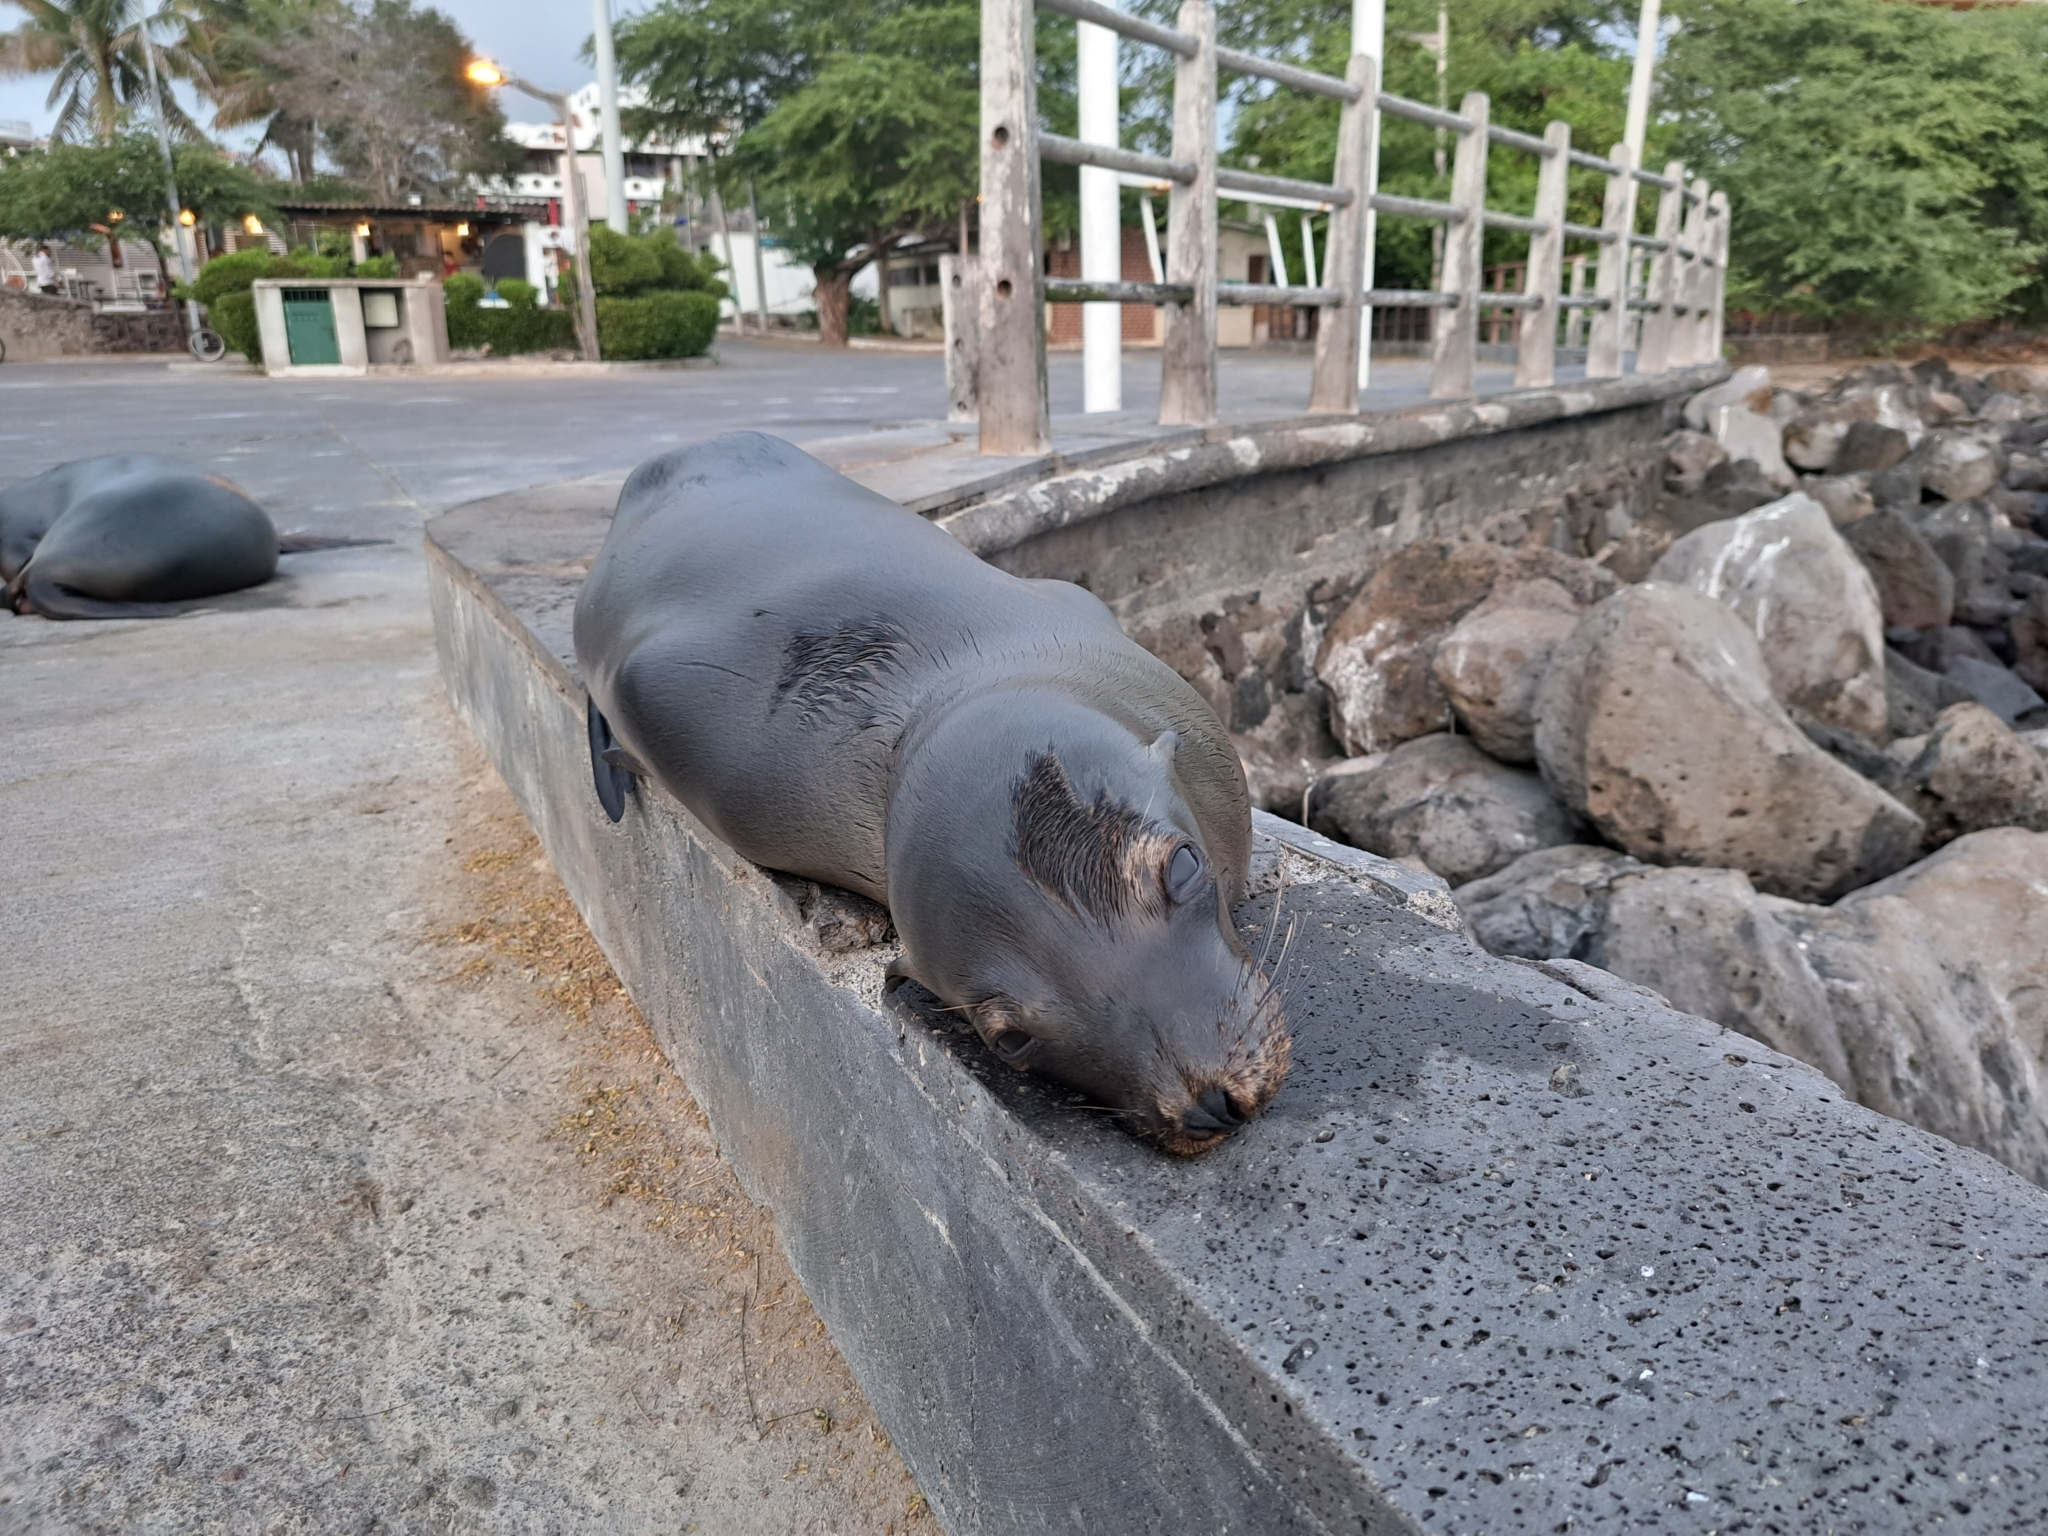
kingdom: Animalia
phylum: Chordata
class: Mammalia
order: Carnivora
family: Otariidae
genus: Zalophus
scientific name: Zalophus wollebaeki
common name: Galapagos sea lion
